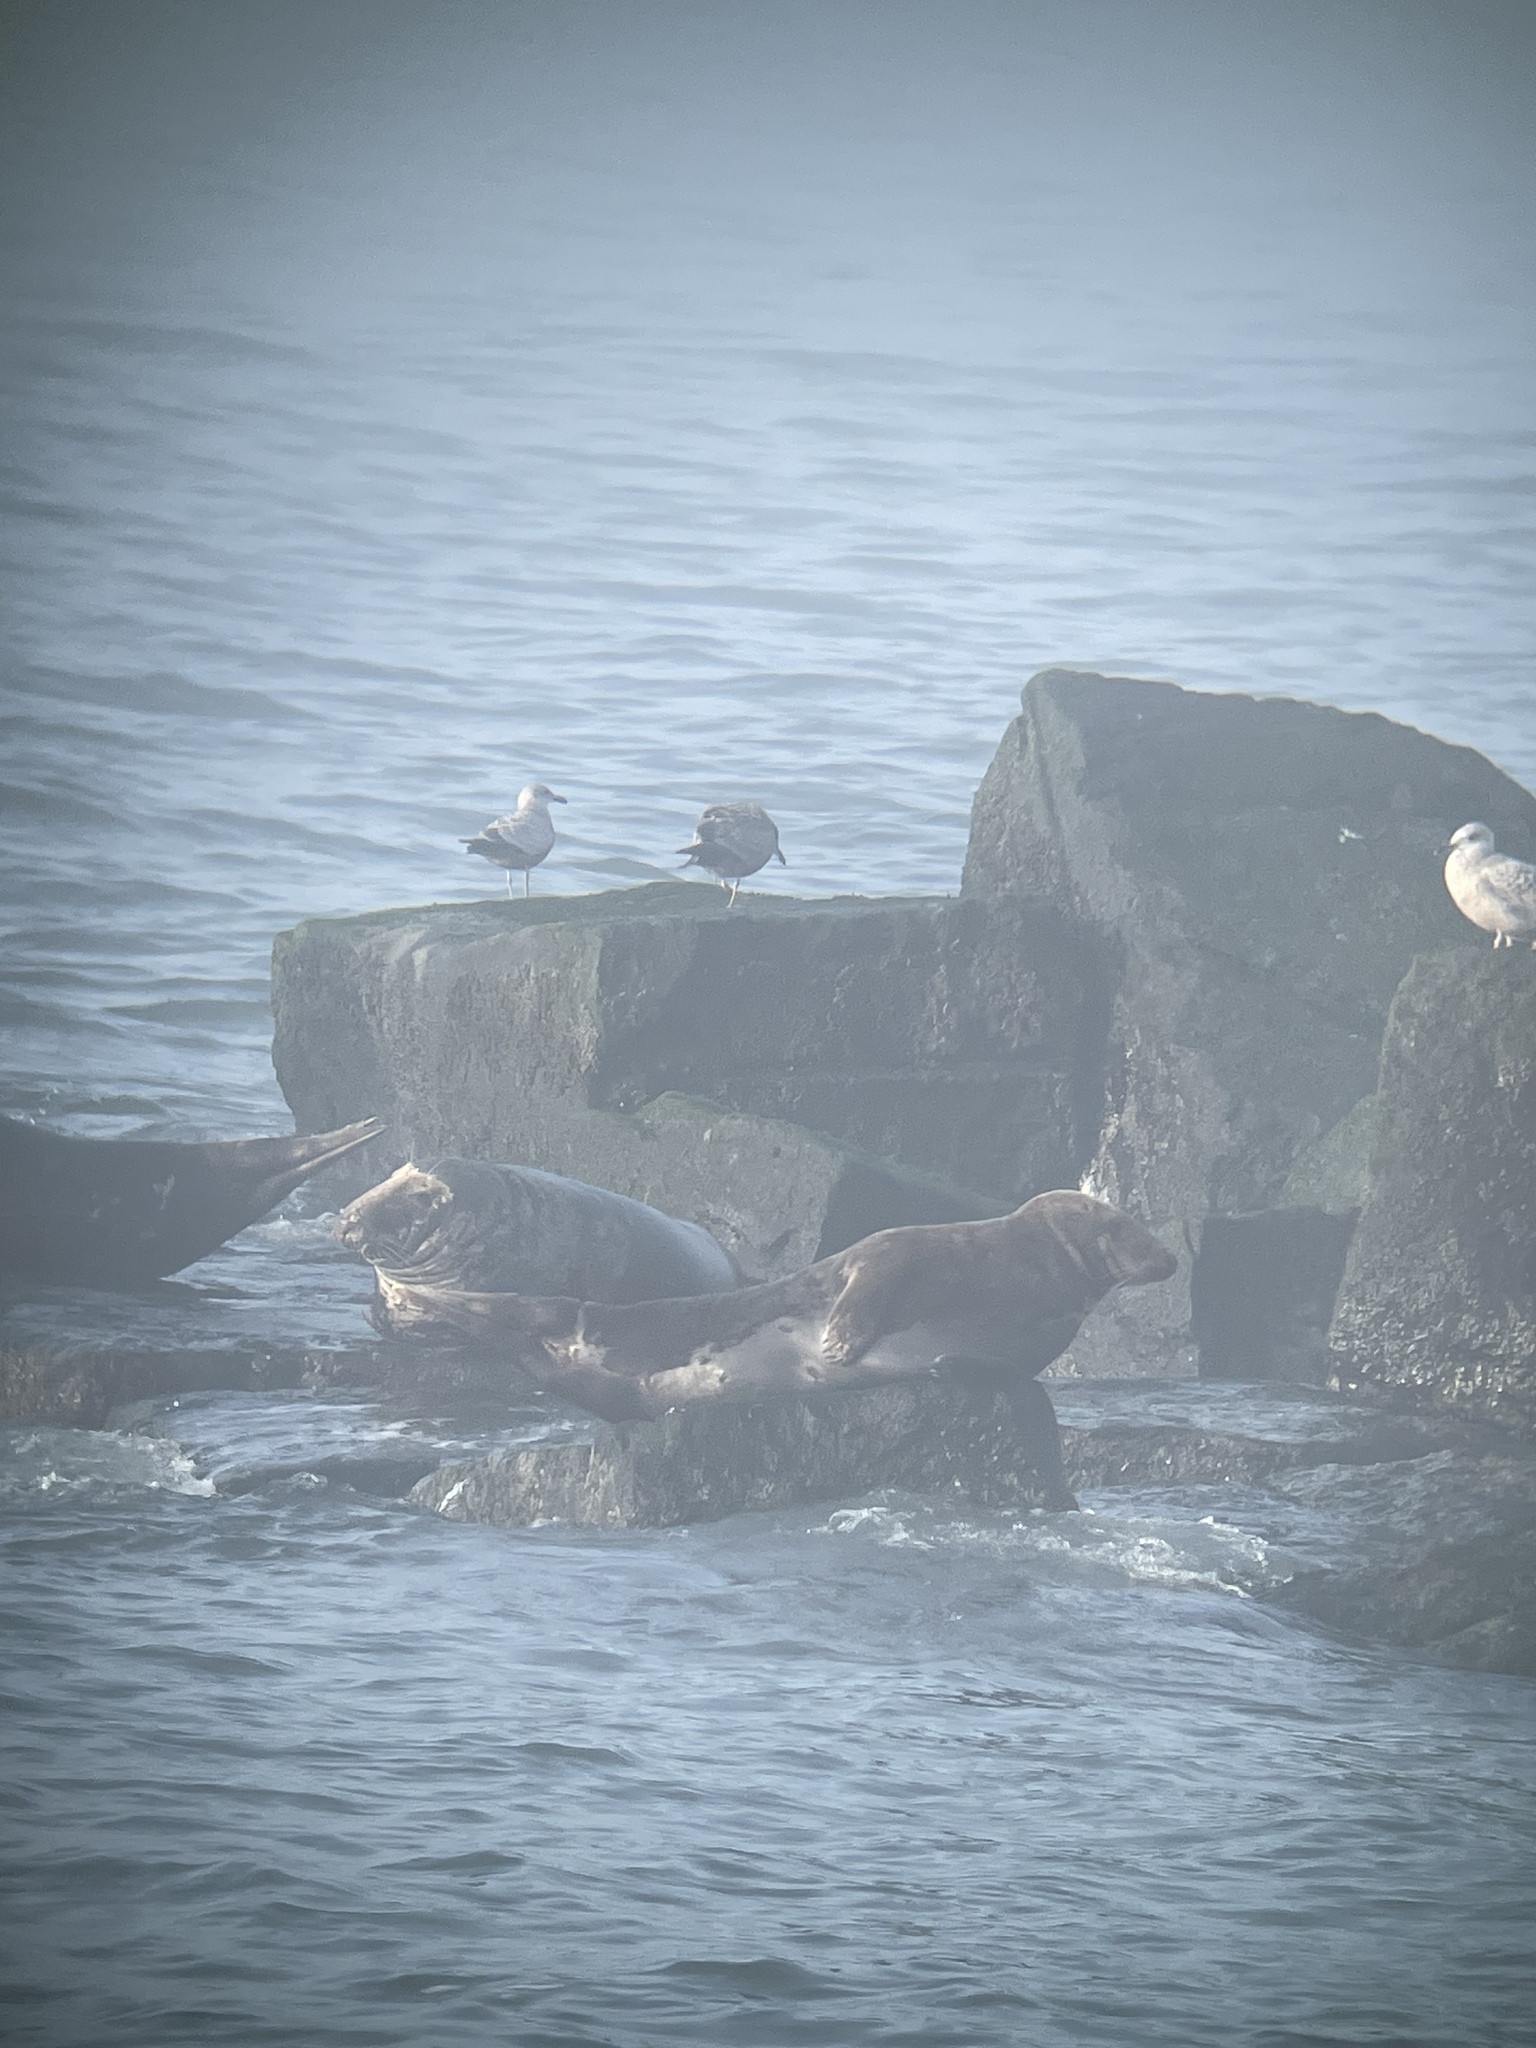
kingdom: Animalia
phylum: Chordata
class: Mammalia
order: Carnivora
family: Phocidae
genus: Halichoerus
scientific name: Halichoerus grypus
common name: Grey seal
